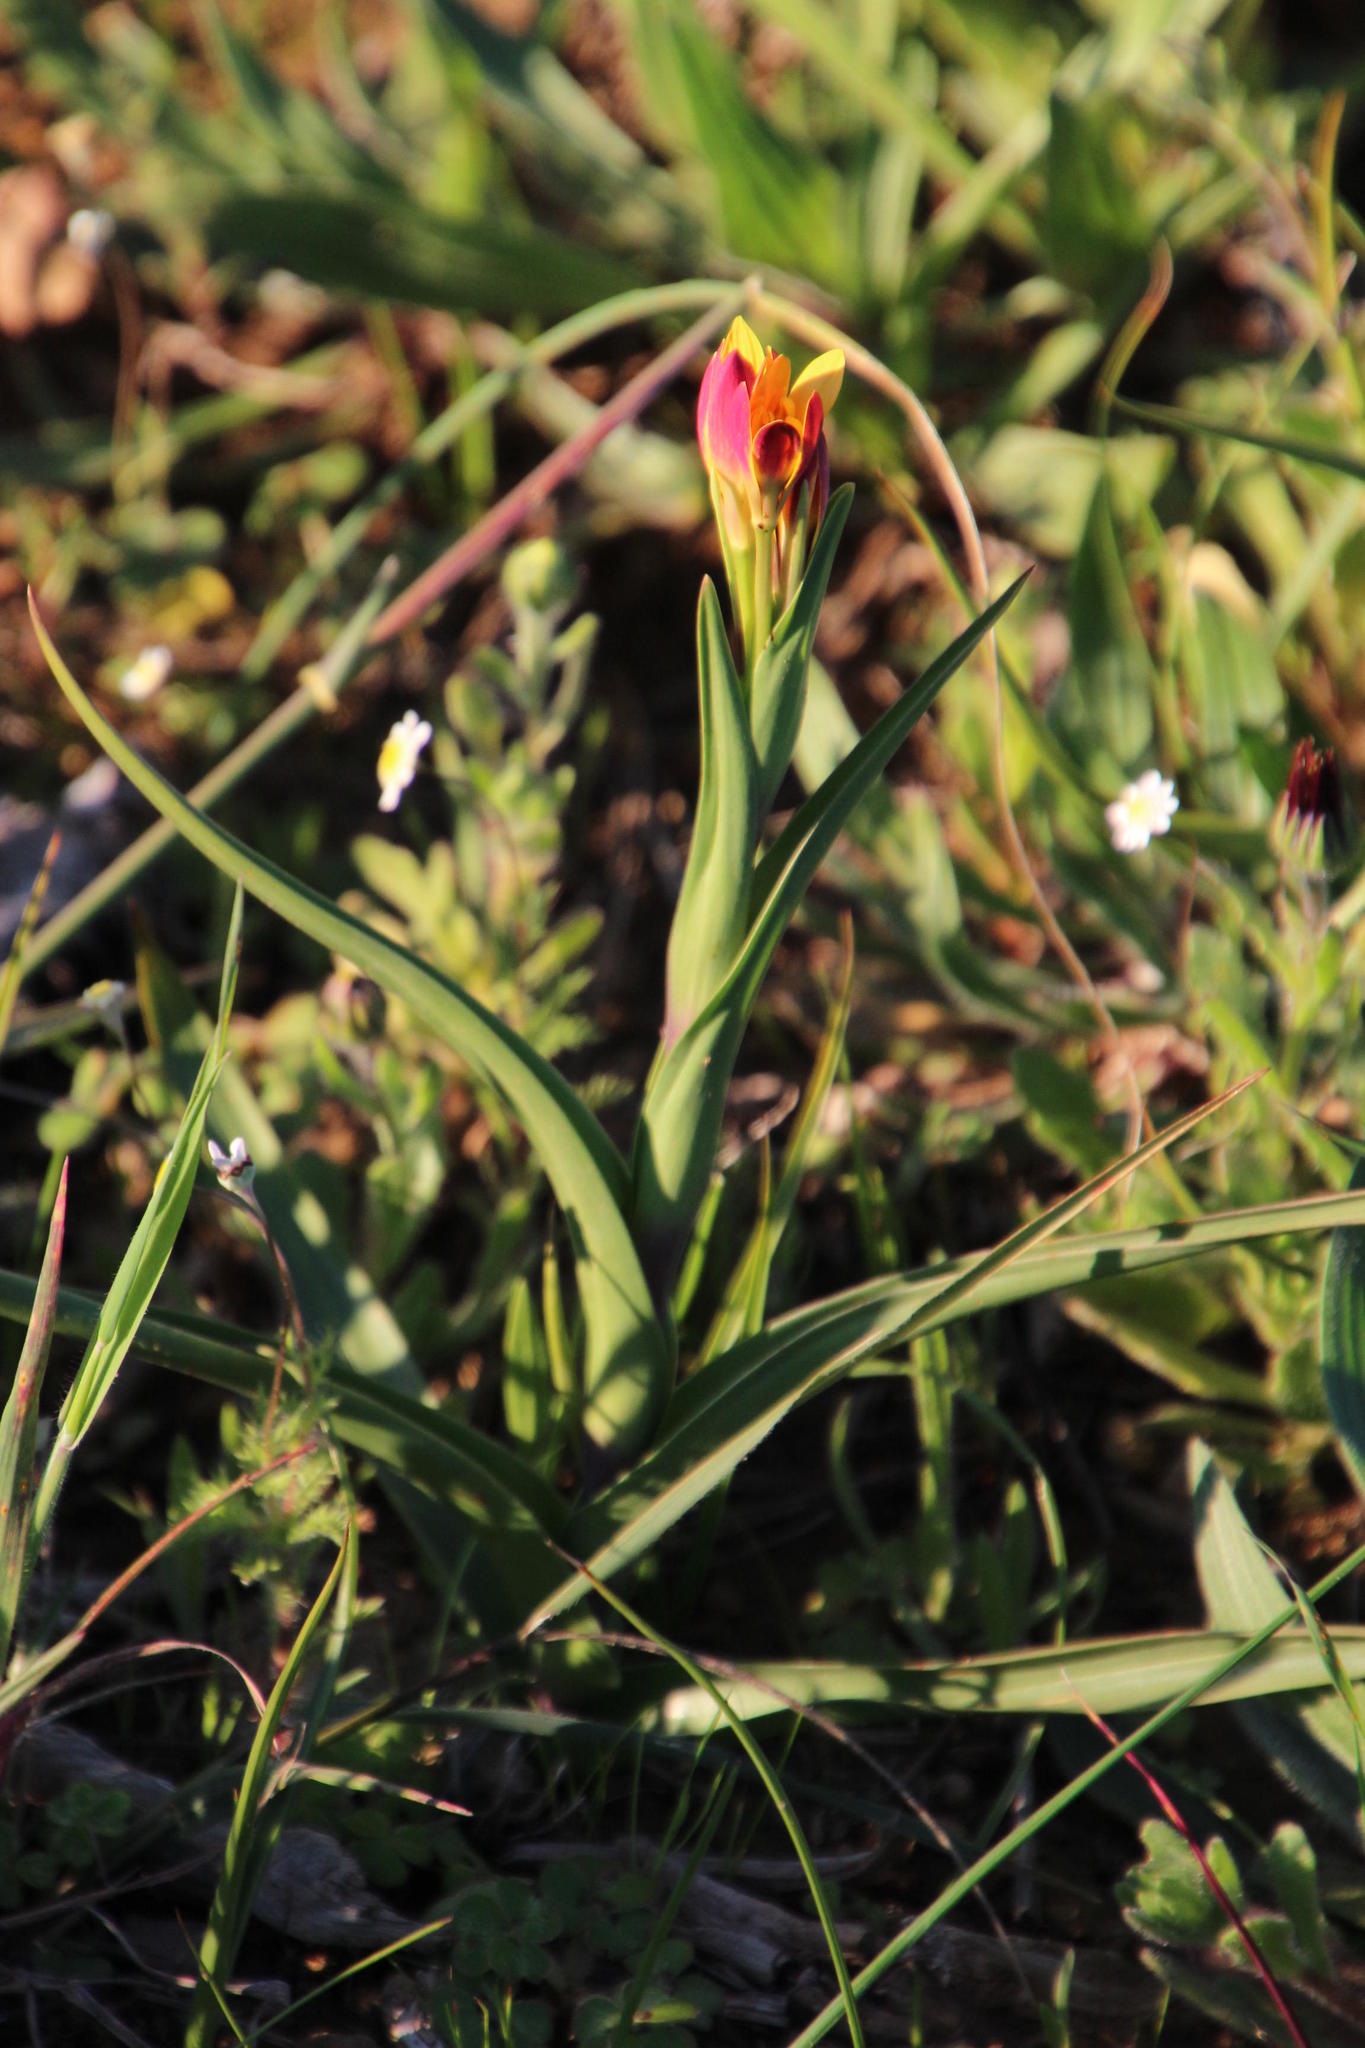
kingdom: Plantae
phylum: Tracheophyta
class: Liliopsida
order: Liliales
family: Colchicaceae
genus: Baeometra
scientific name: Baeometra uniflora
